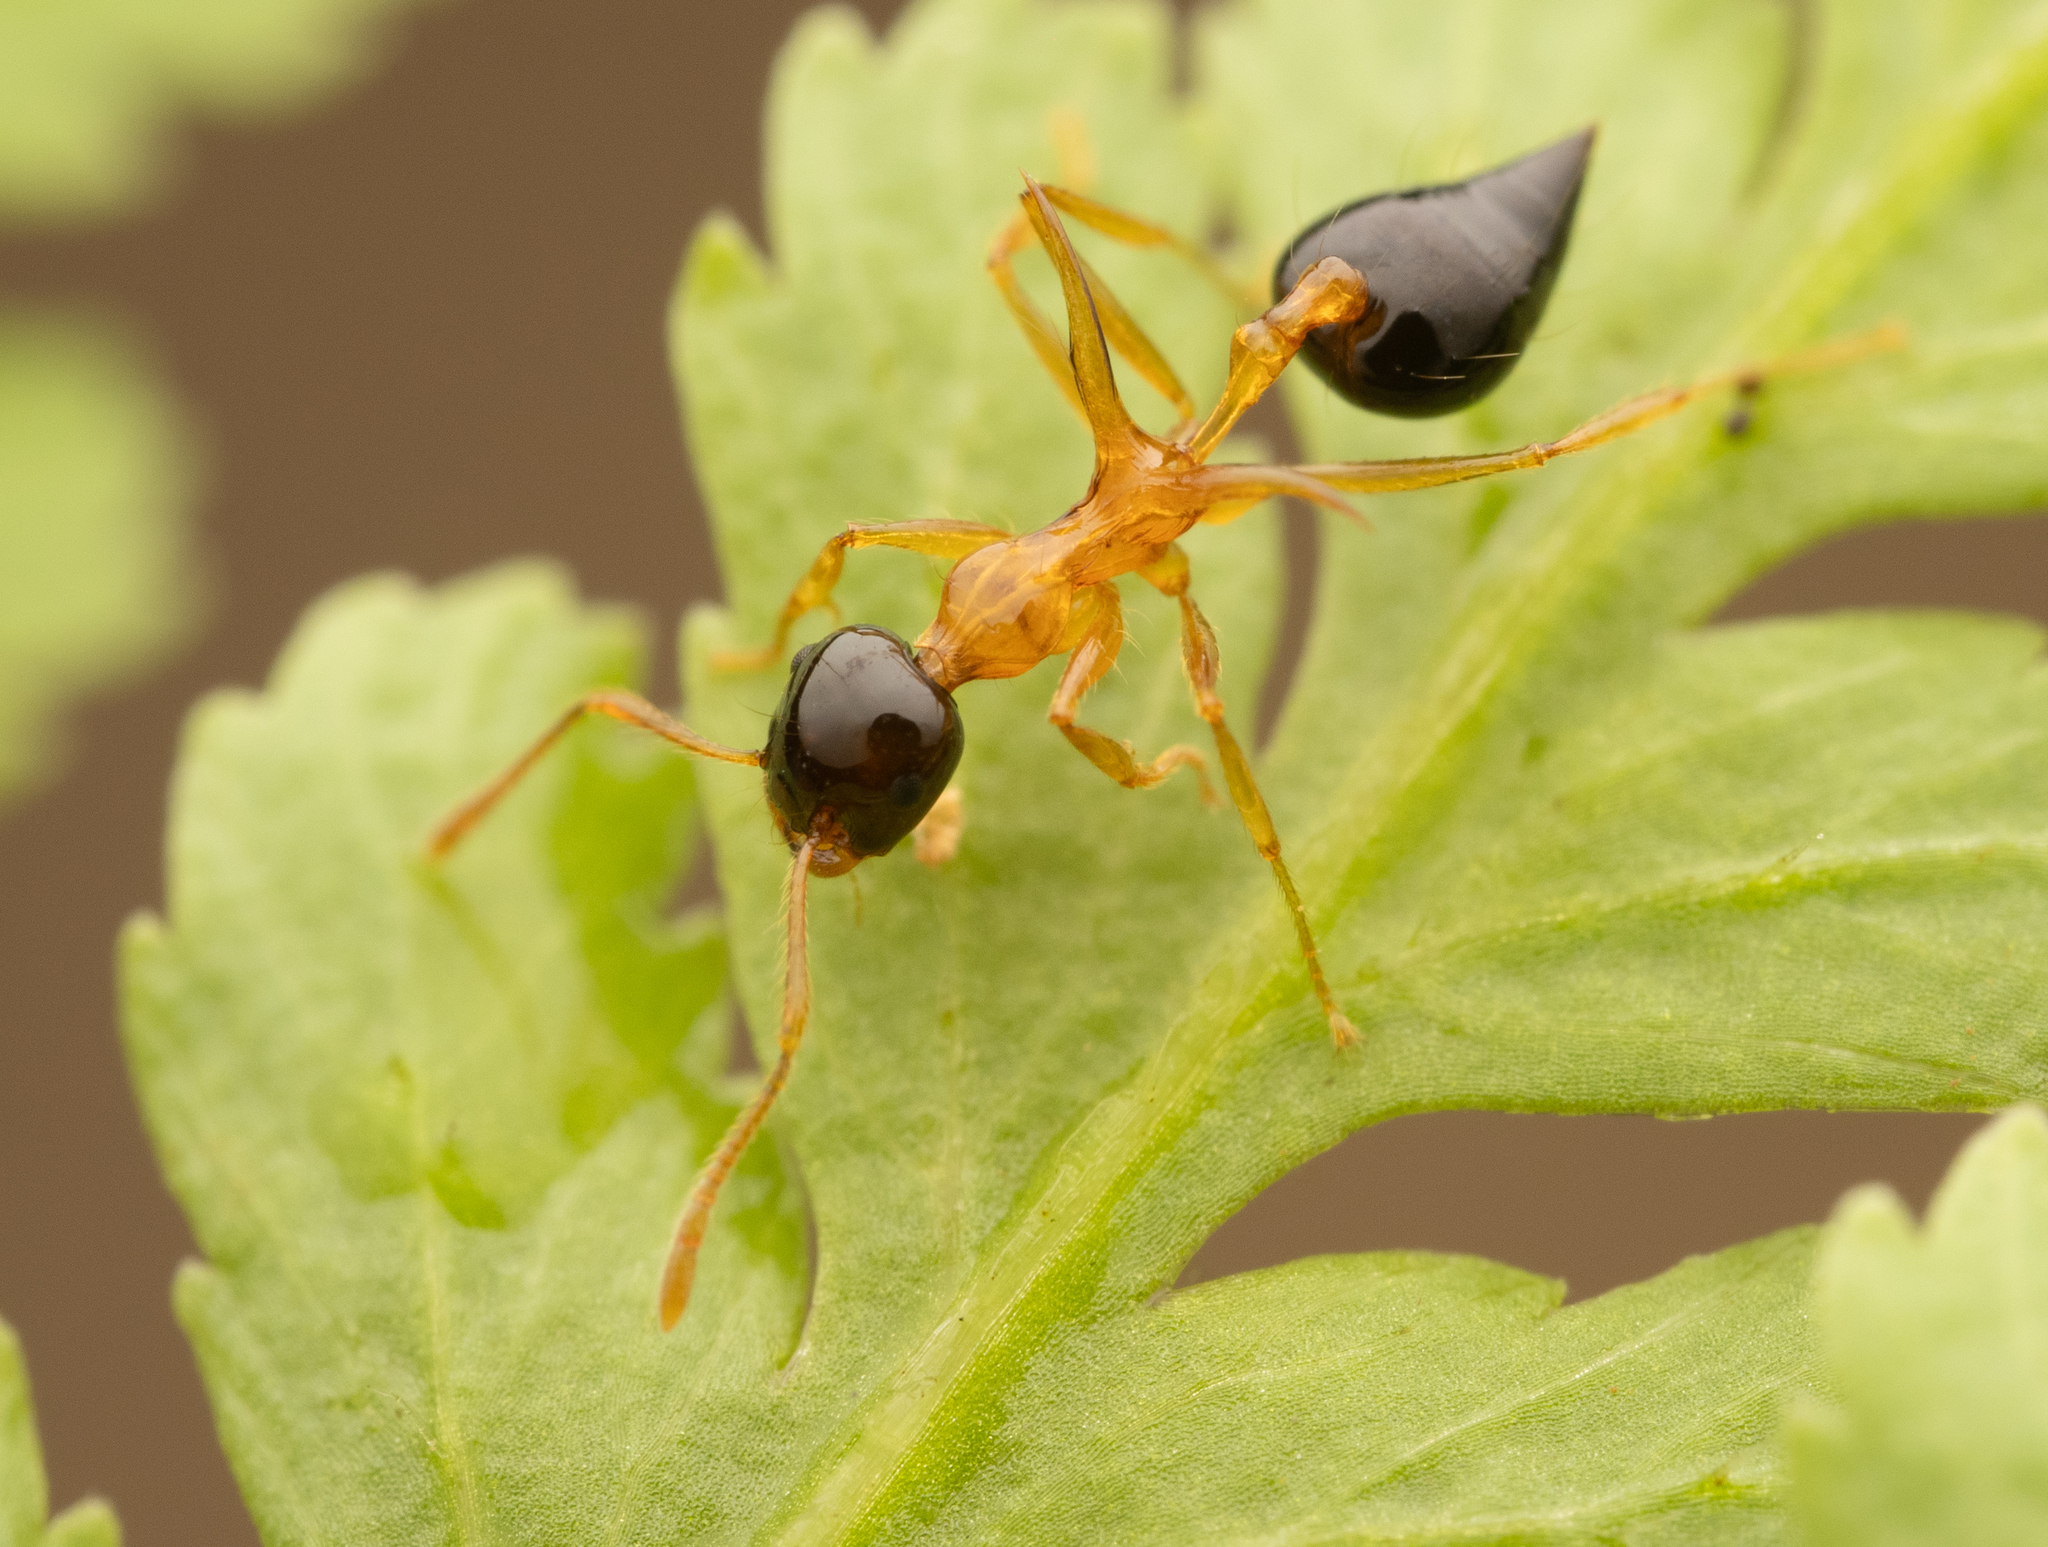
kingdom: Animalia
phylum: Arthropoda
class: Insecta
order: Hymenoptera
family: Formicidae
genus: Crematogaster
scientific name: Crematogaster paradoxa
